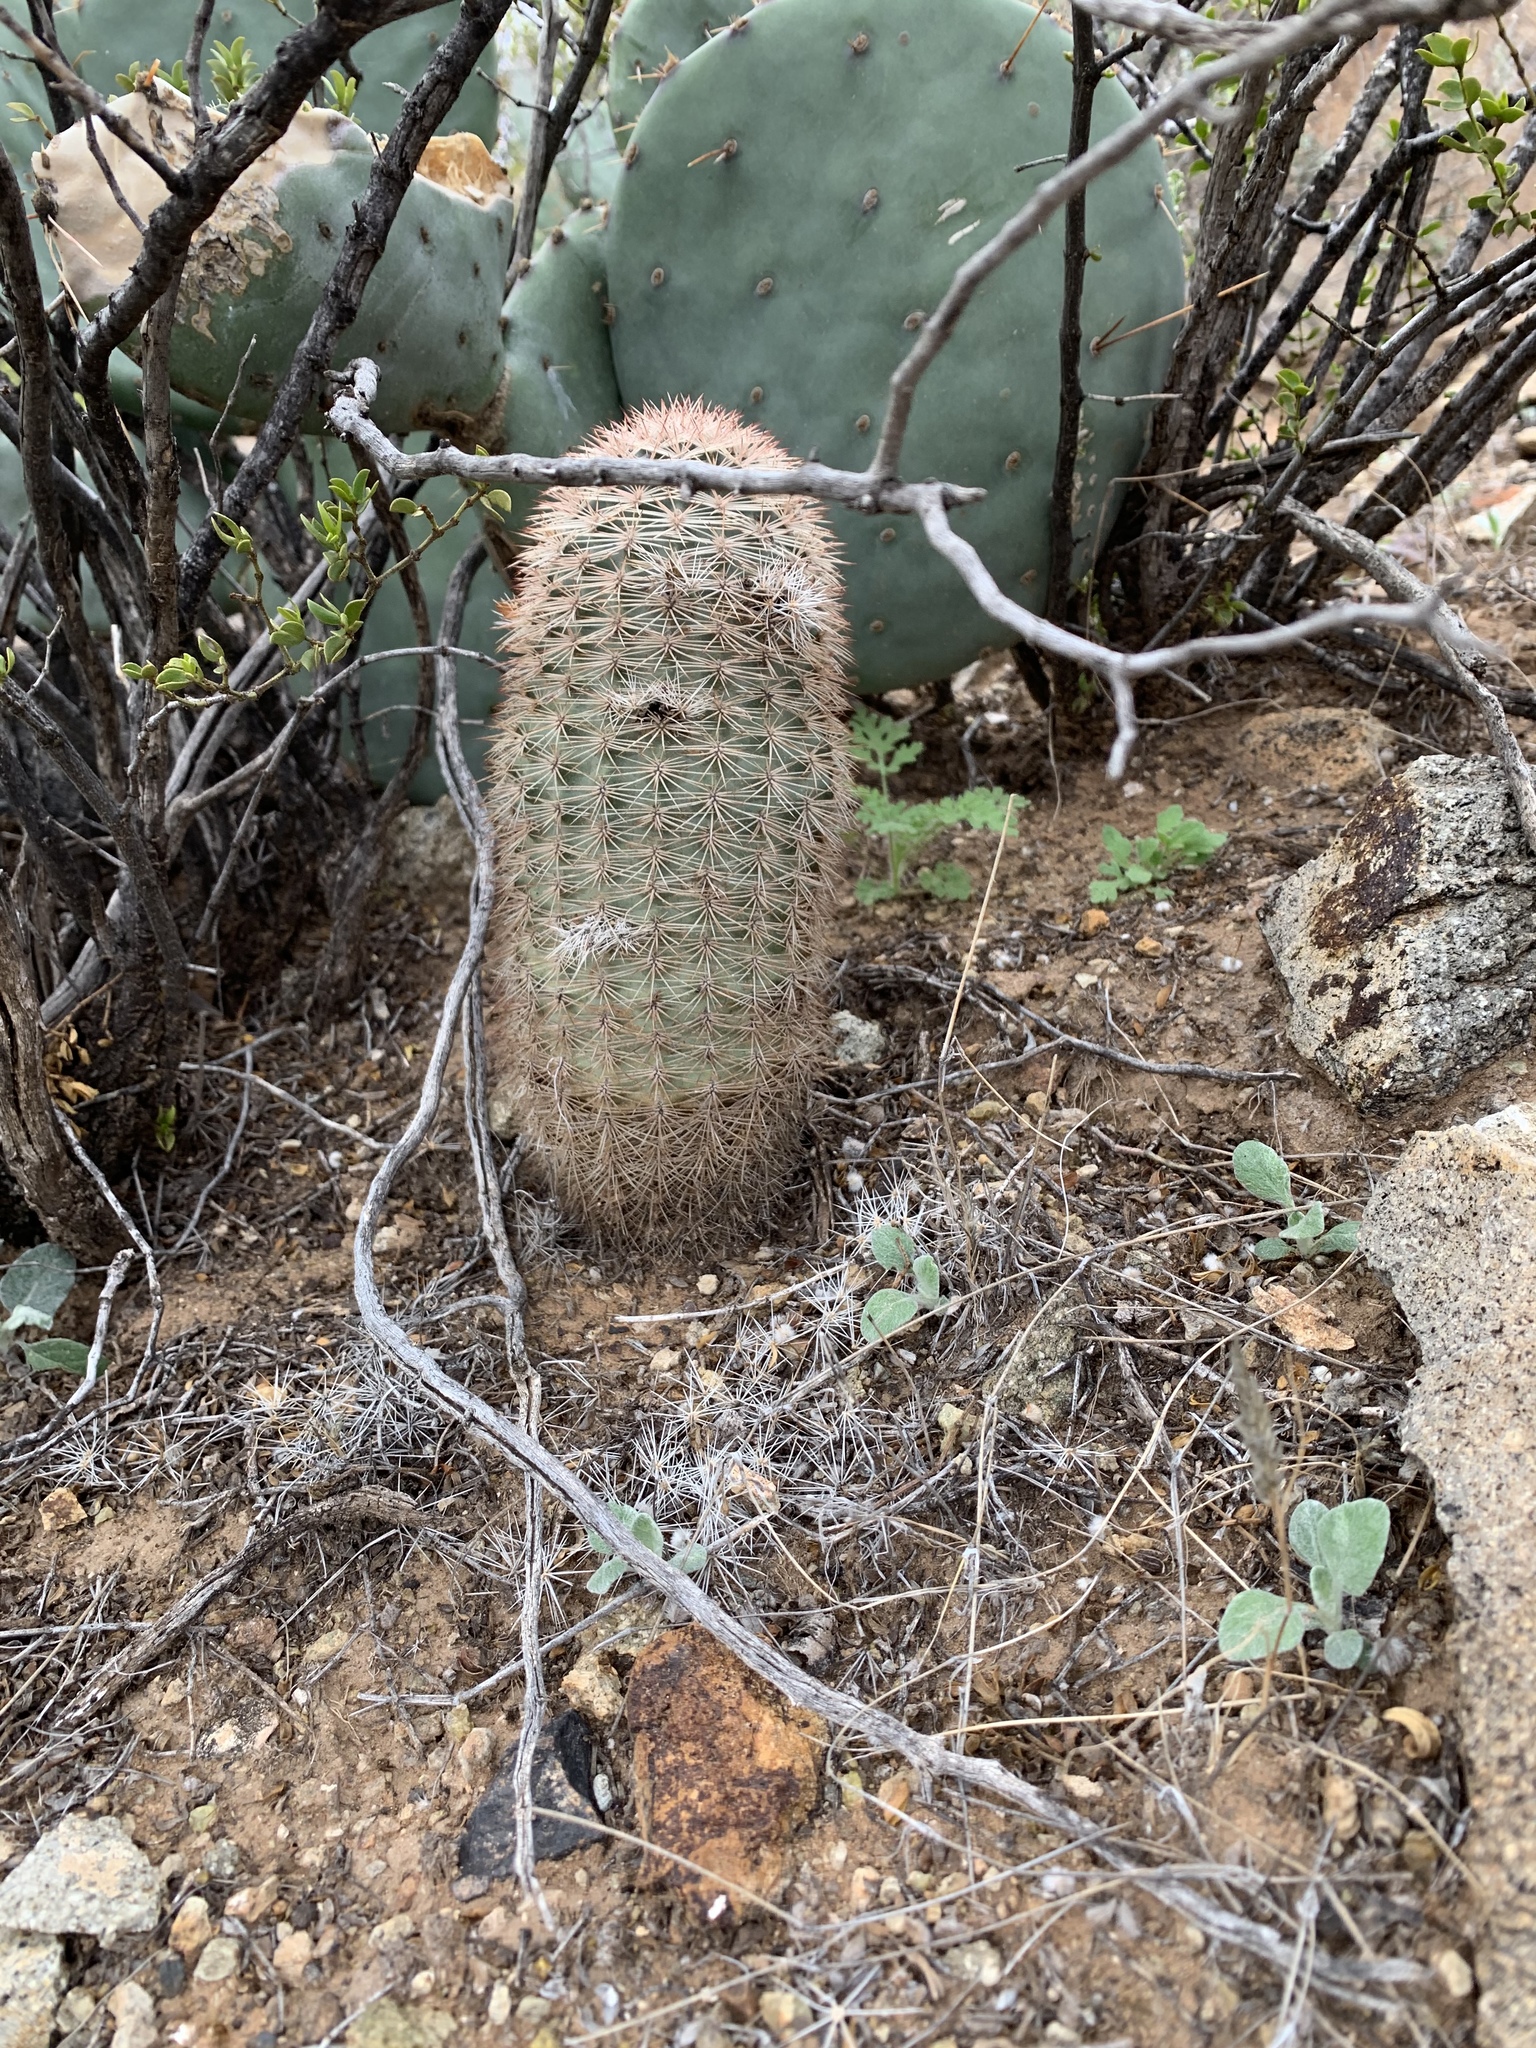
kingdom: Plantae
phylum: Tracheophyta
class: Magnoliopsida
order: Caryophyllales
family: Cactaceae
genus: Echinocereus
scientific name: Echinocereus dasyacanthus
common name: Spiny hedgehog cactus
